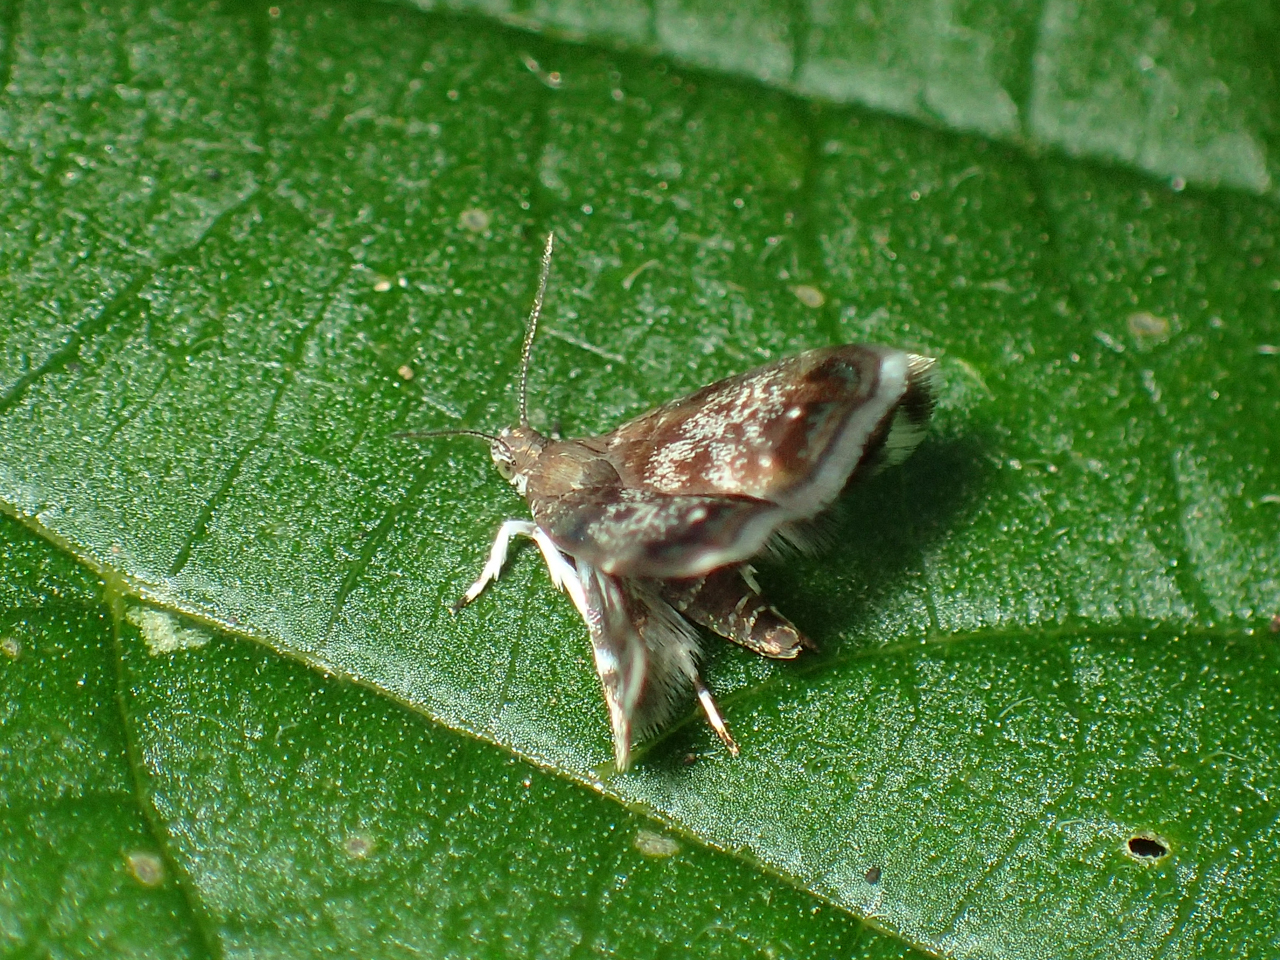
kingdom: Animalia
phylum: Arthropoda
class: Insecta
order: Lepidoptera
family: Choreutidae
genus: Brenthia
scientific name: Brenthia pavonacella
